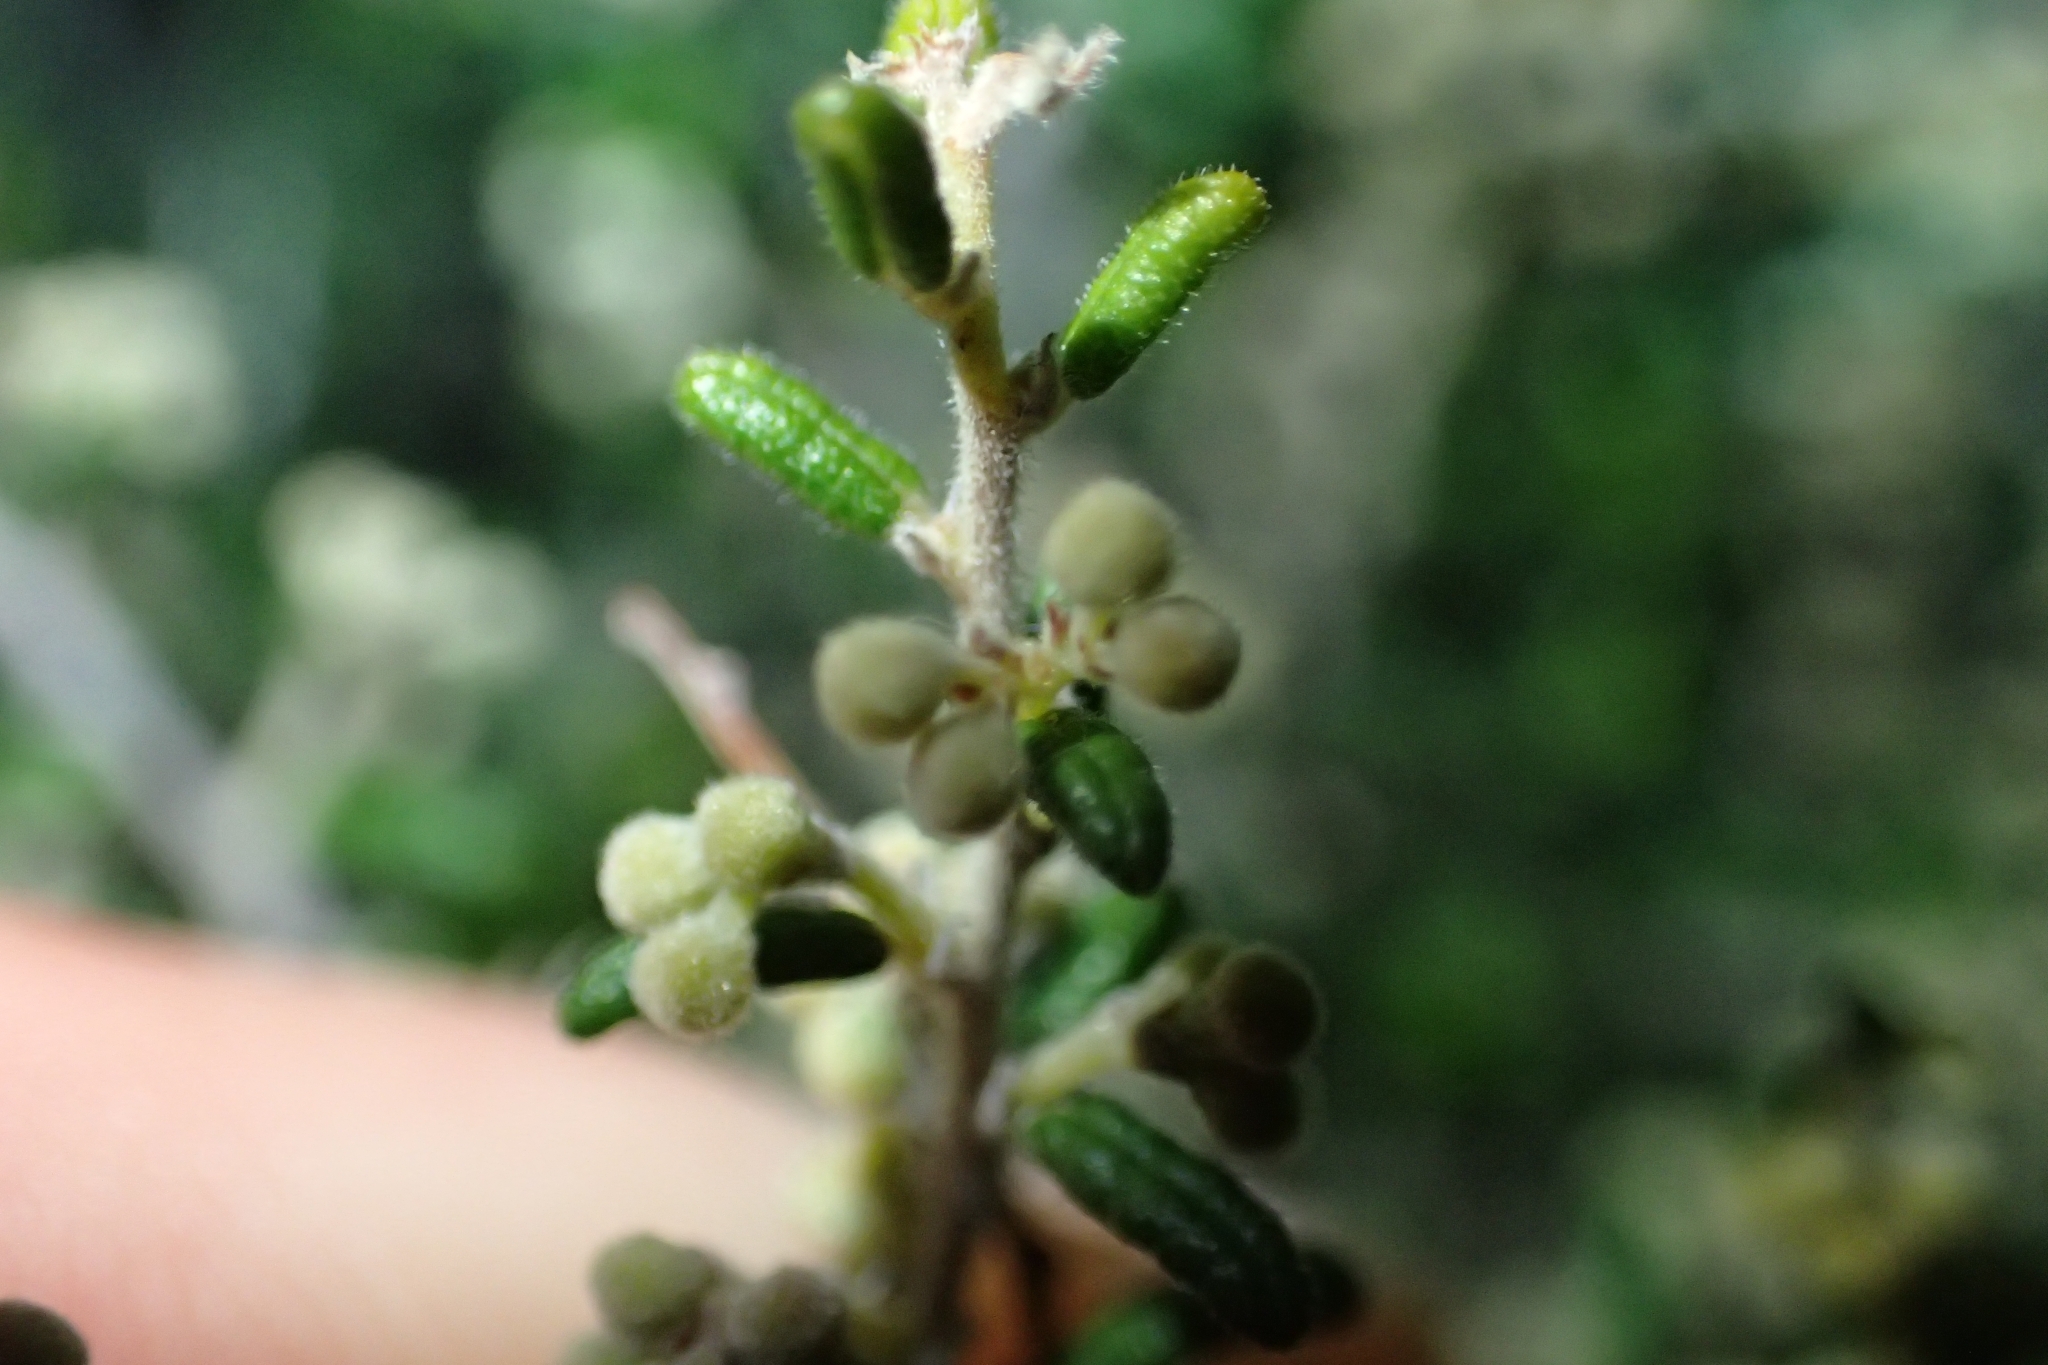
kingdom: Plantae
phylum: Tracheophyta
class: Magnoliopsida
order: Rosales
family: Rhamnaceae
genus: Pomaderris
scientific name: Pomaderris amoena
